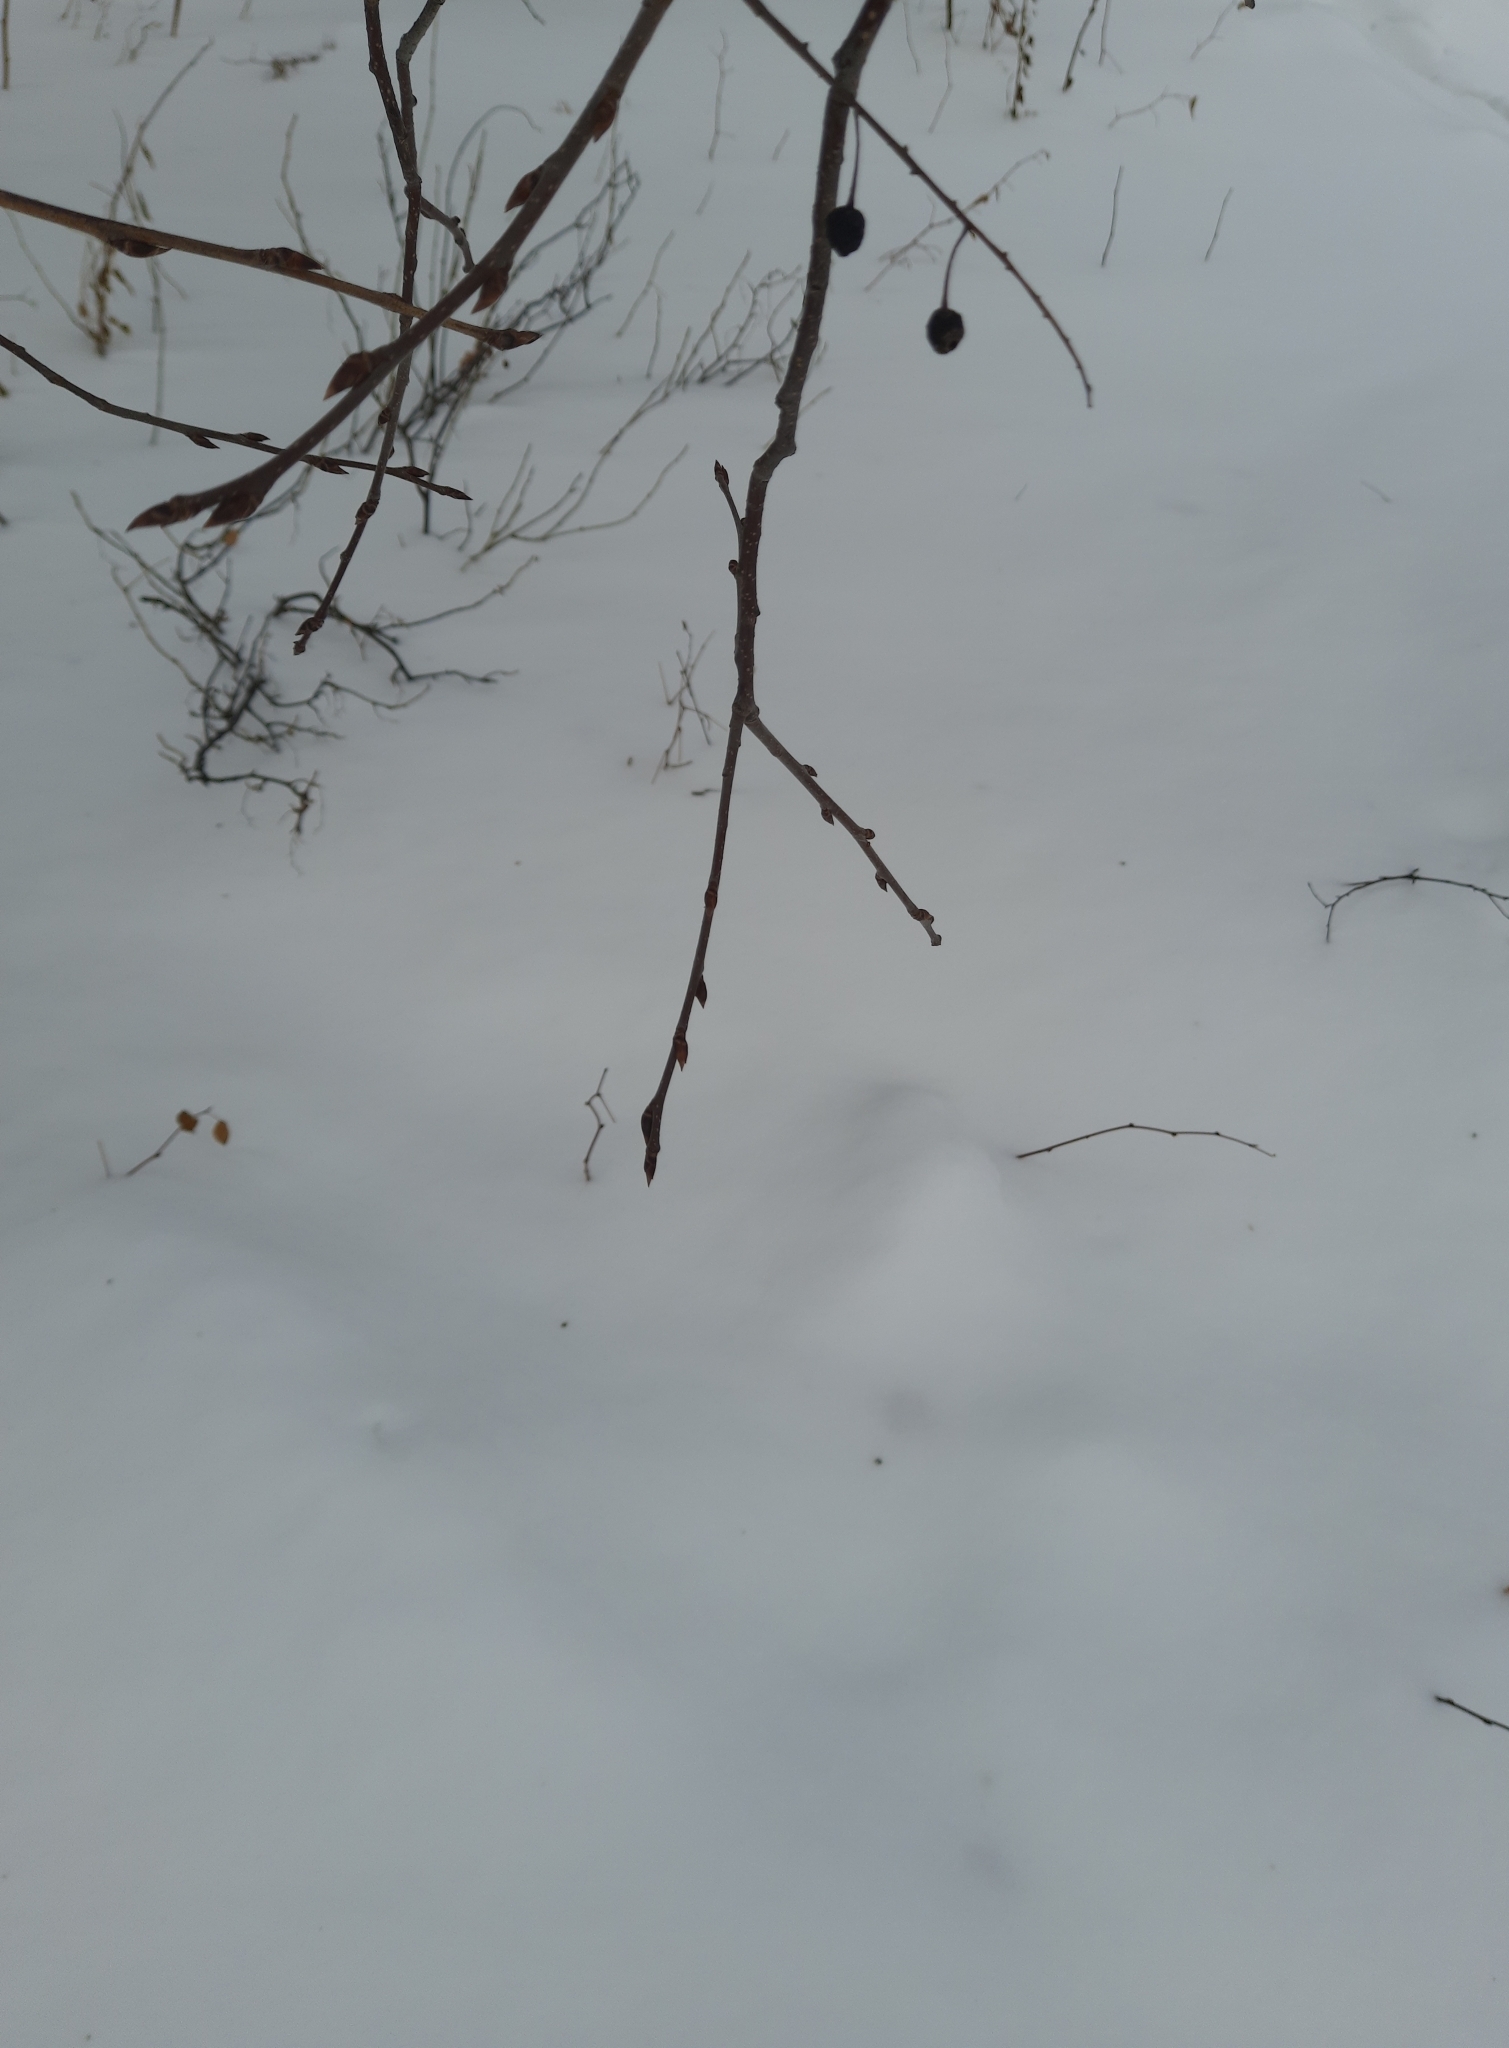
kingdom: Plantae
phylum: Tracheophyta
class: Magnoliopsida
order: Rosales
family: Rosaceae
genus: Prunus
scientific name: Prunus padus
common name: Bird cherry
